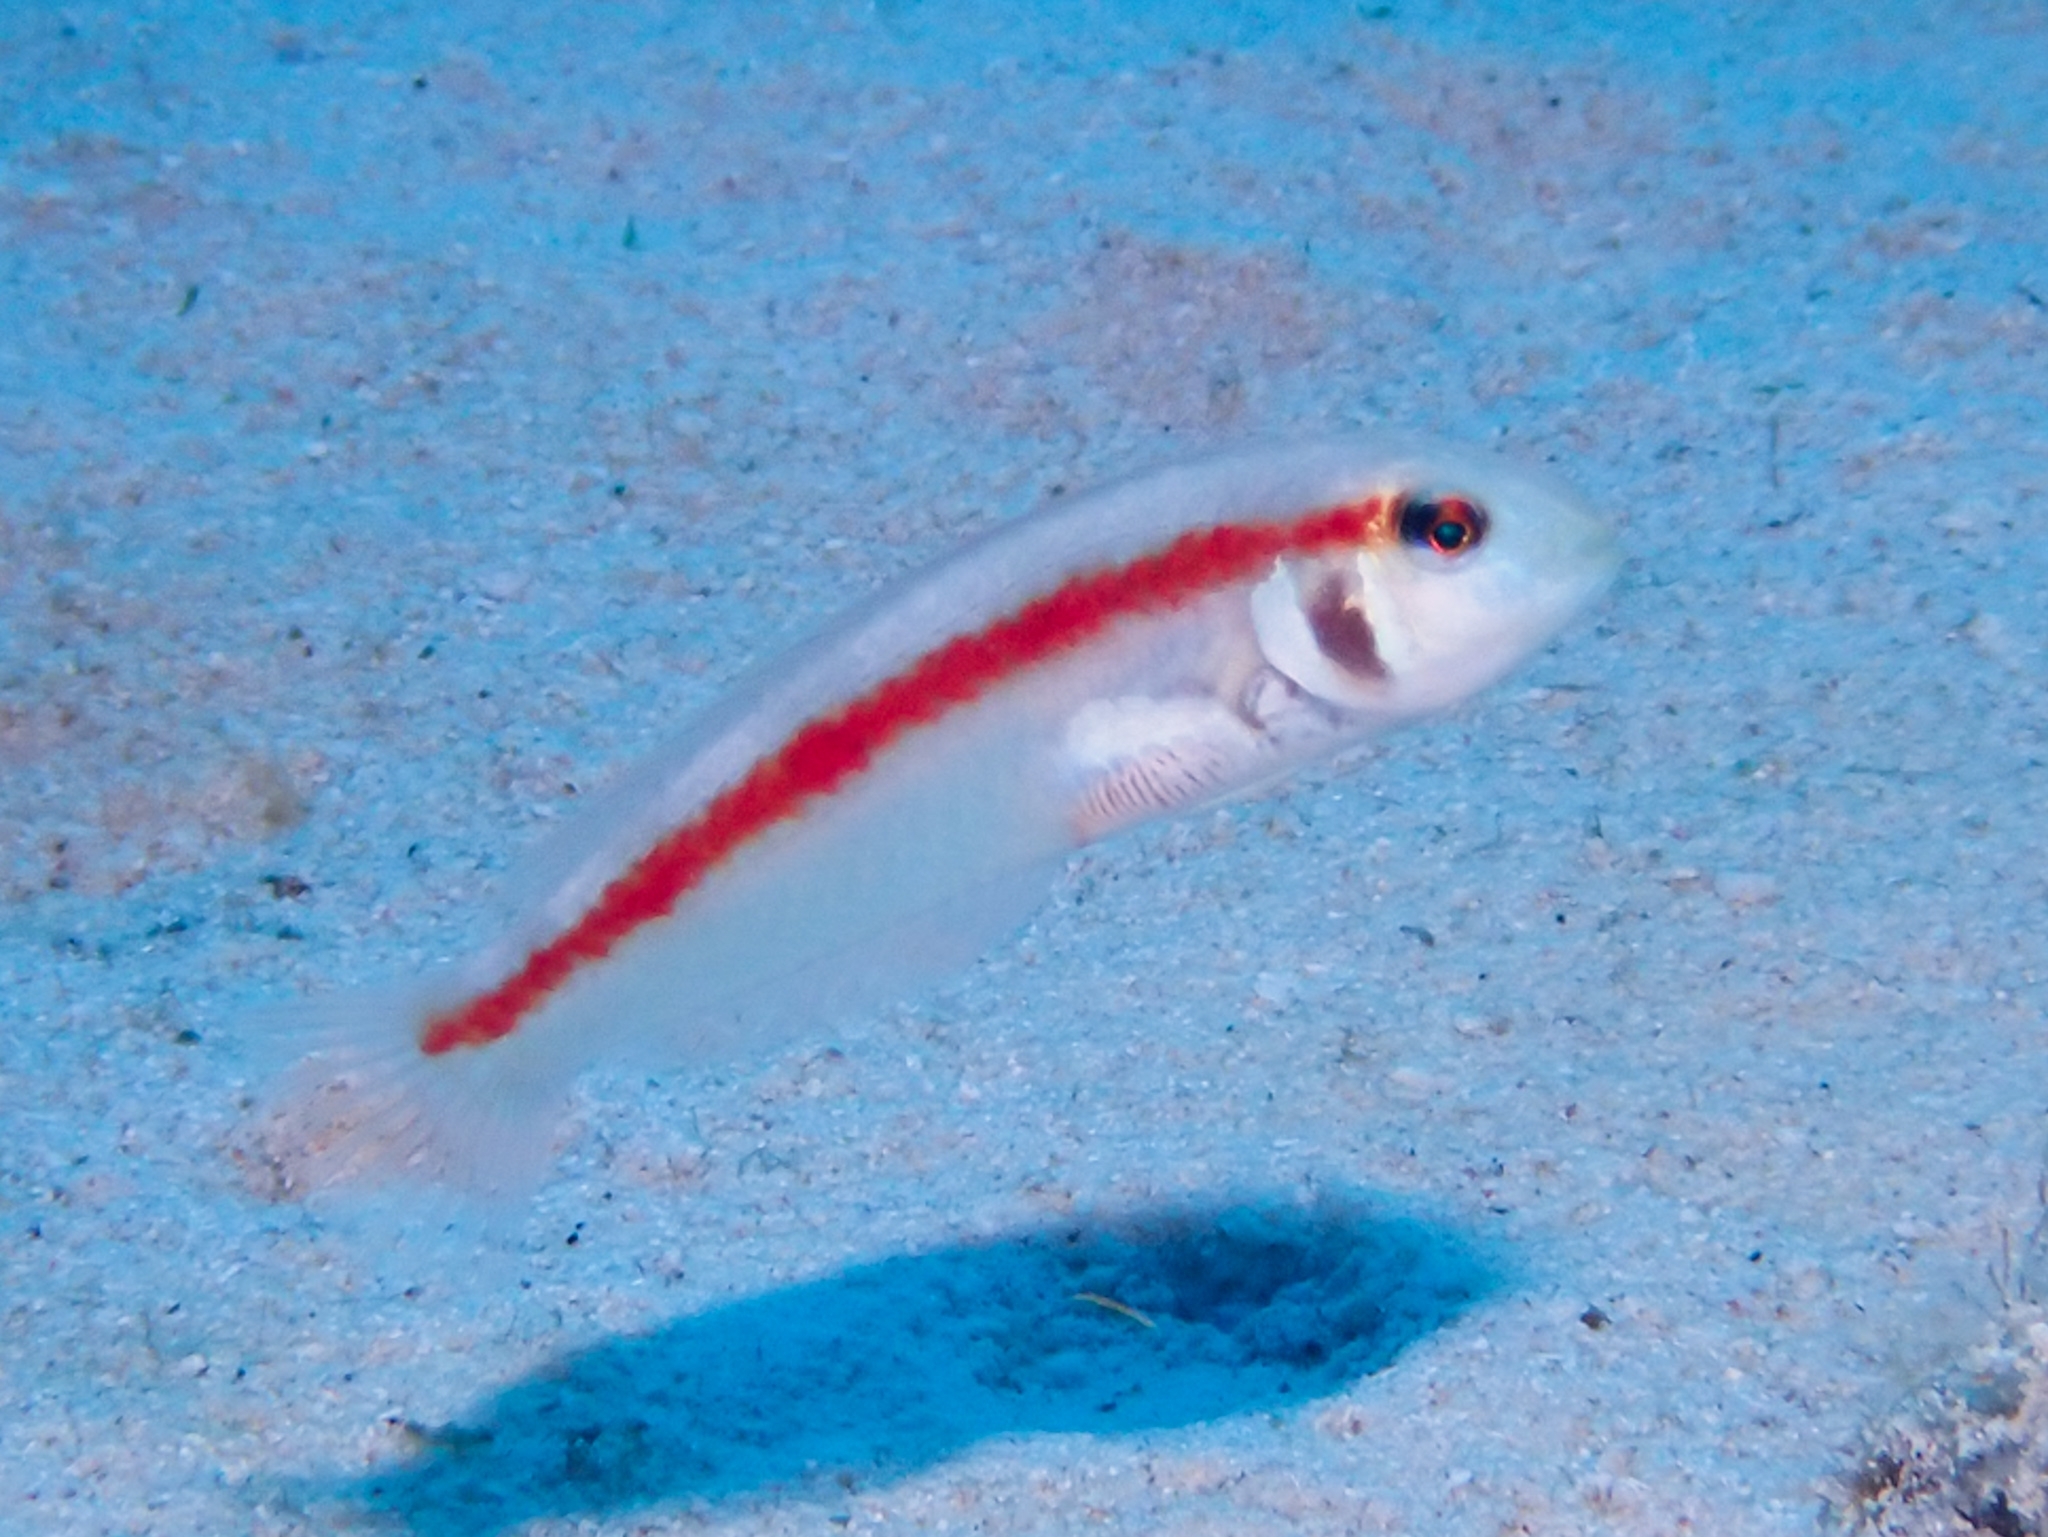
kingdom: Animalia
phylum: Chordata
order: Perciformes
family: Labridae
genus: Xyrichtys
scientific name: Xyrichtys martinicensis
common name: Rosy razorfish
